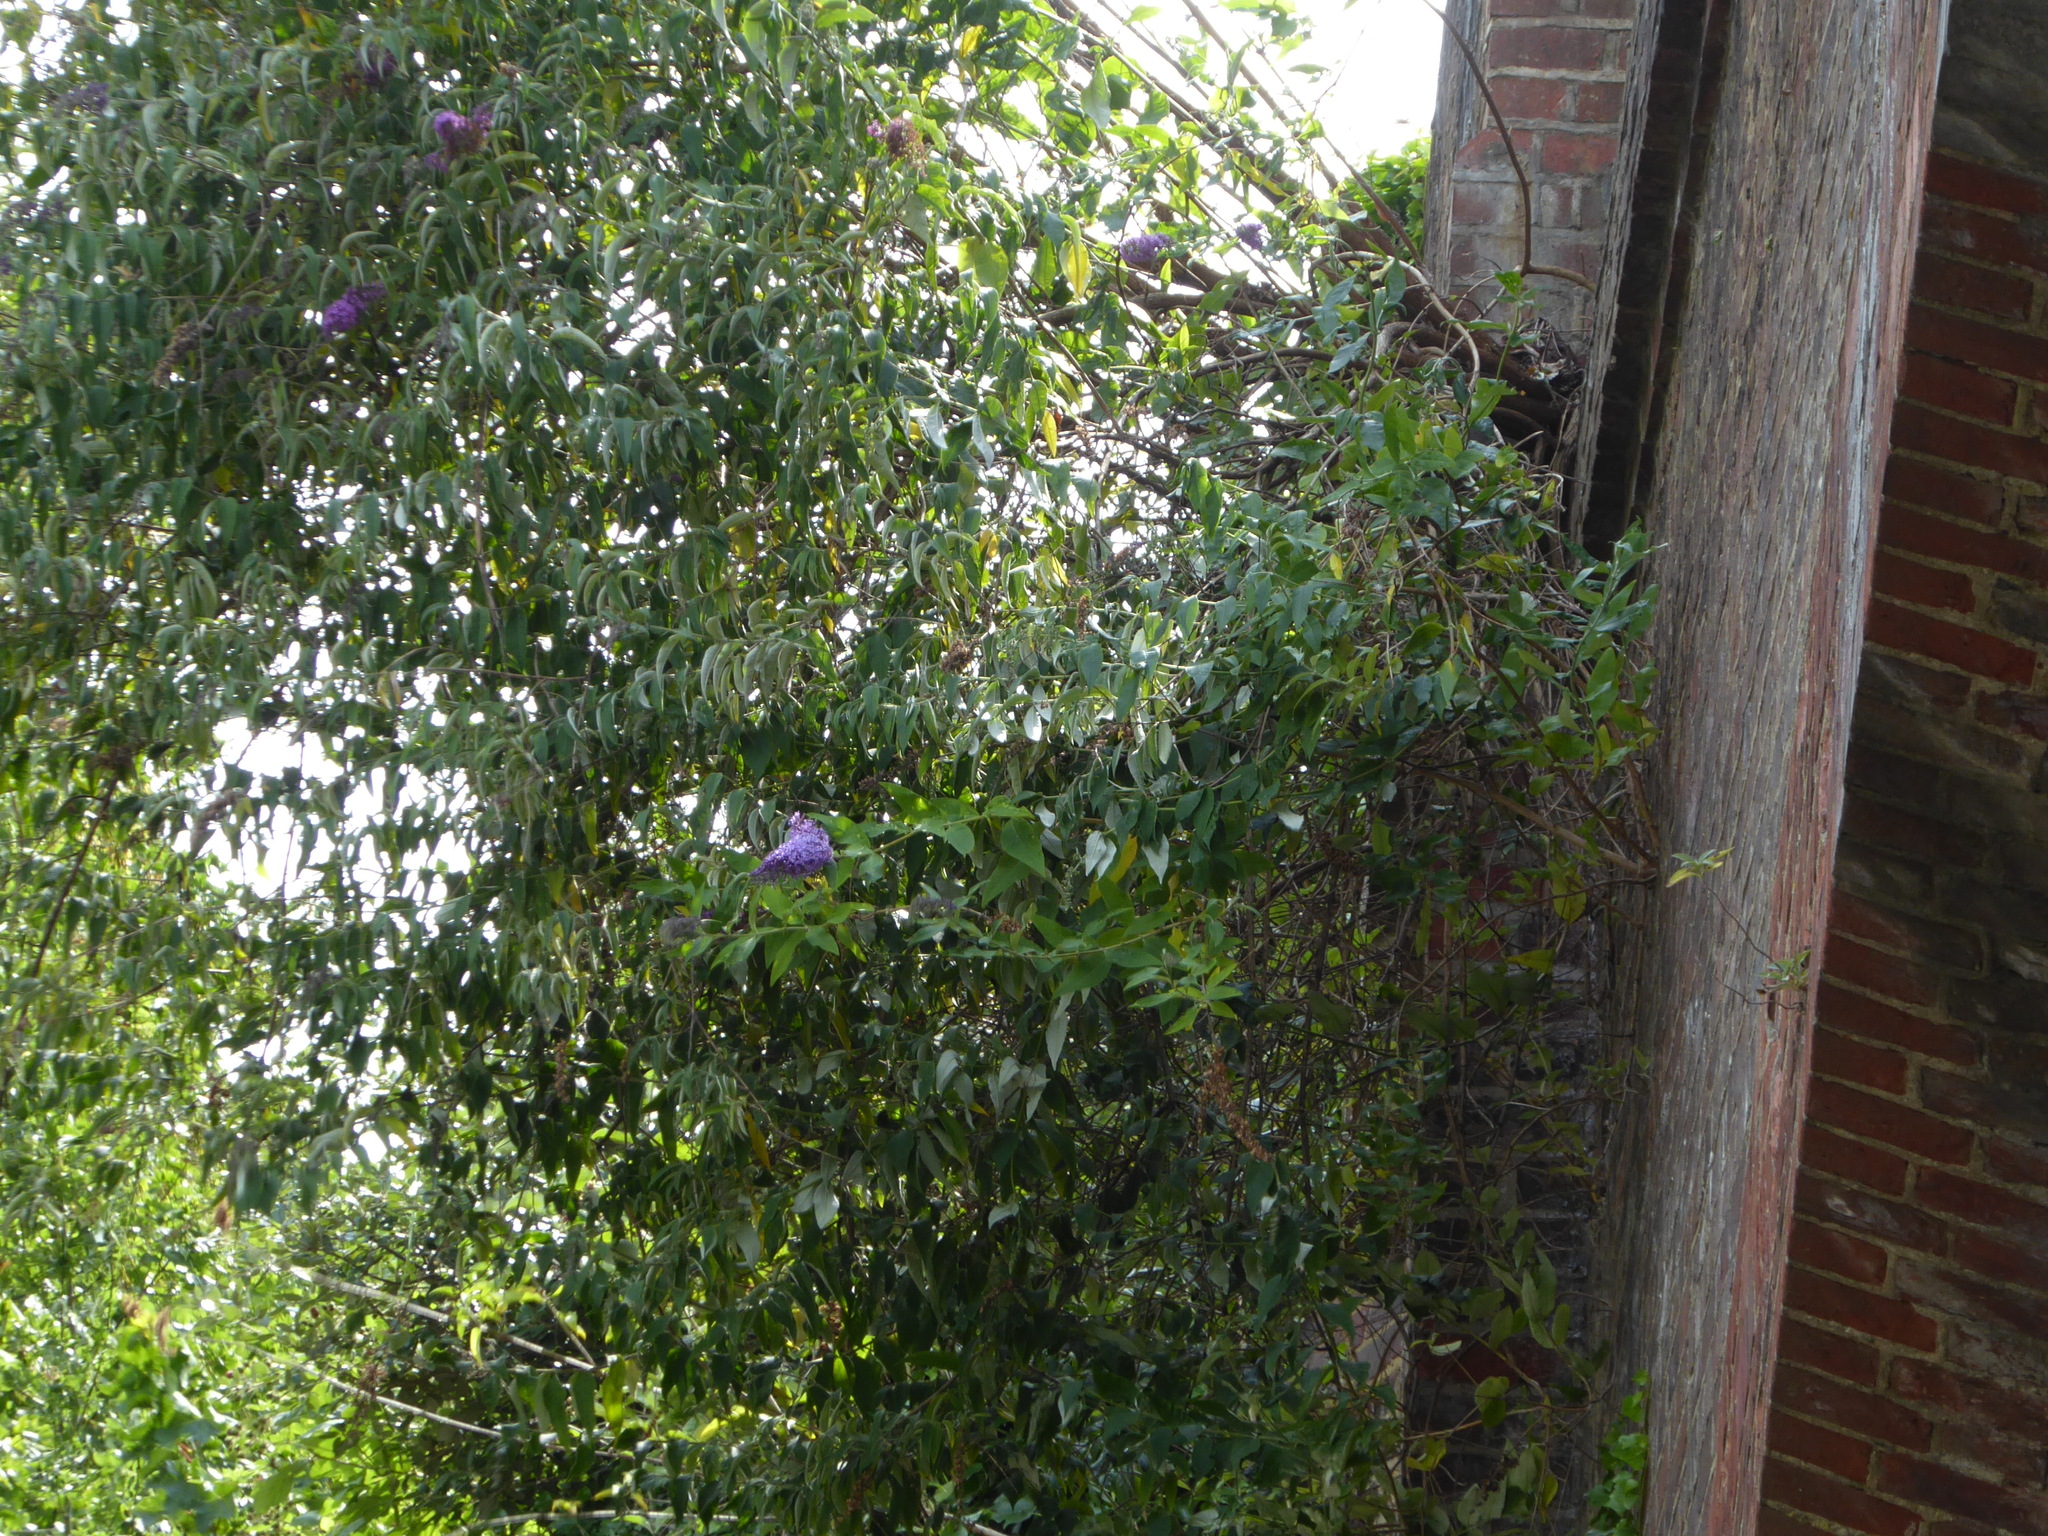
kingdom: Plantae
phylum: Tracheophyta
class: Magnoliopsida
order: Lamiales
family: Scrophulariaceae
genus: Buddleja
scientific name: Buddleja davidii
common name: Butterfly-bush
